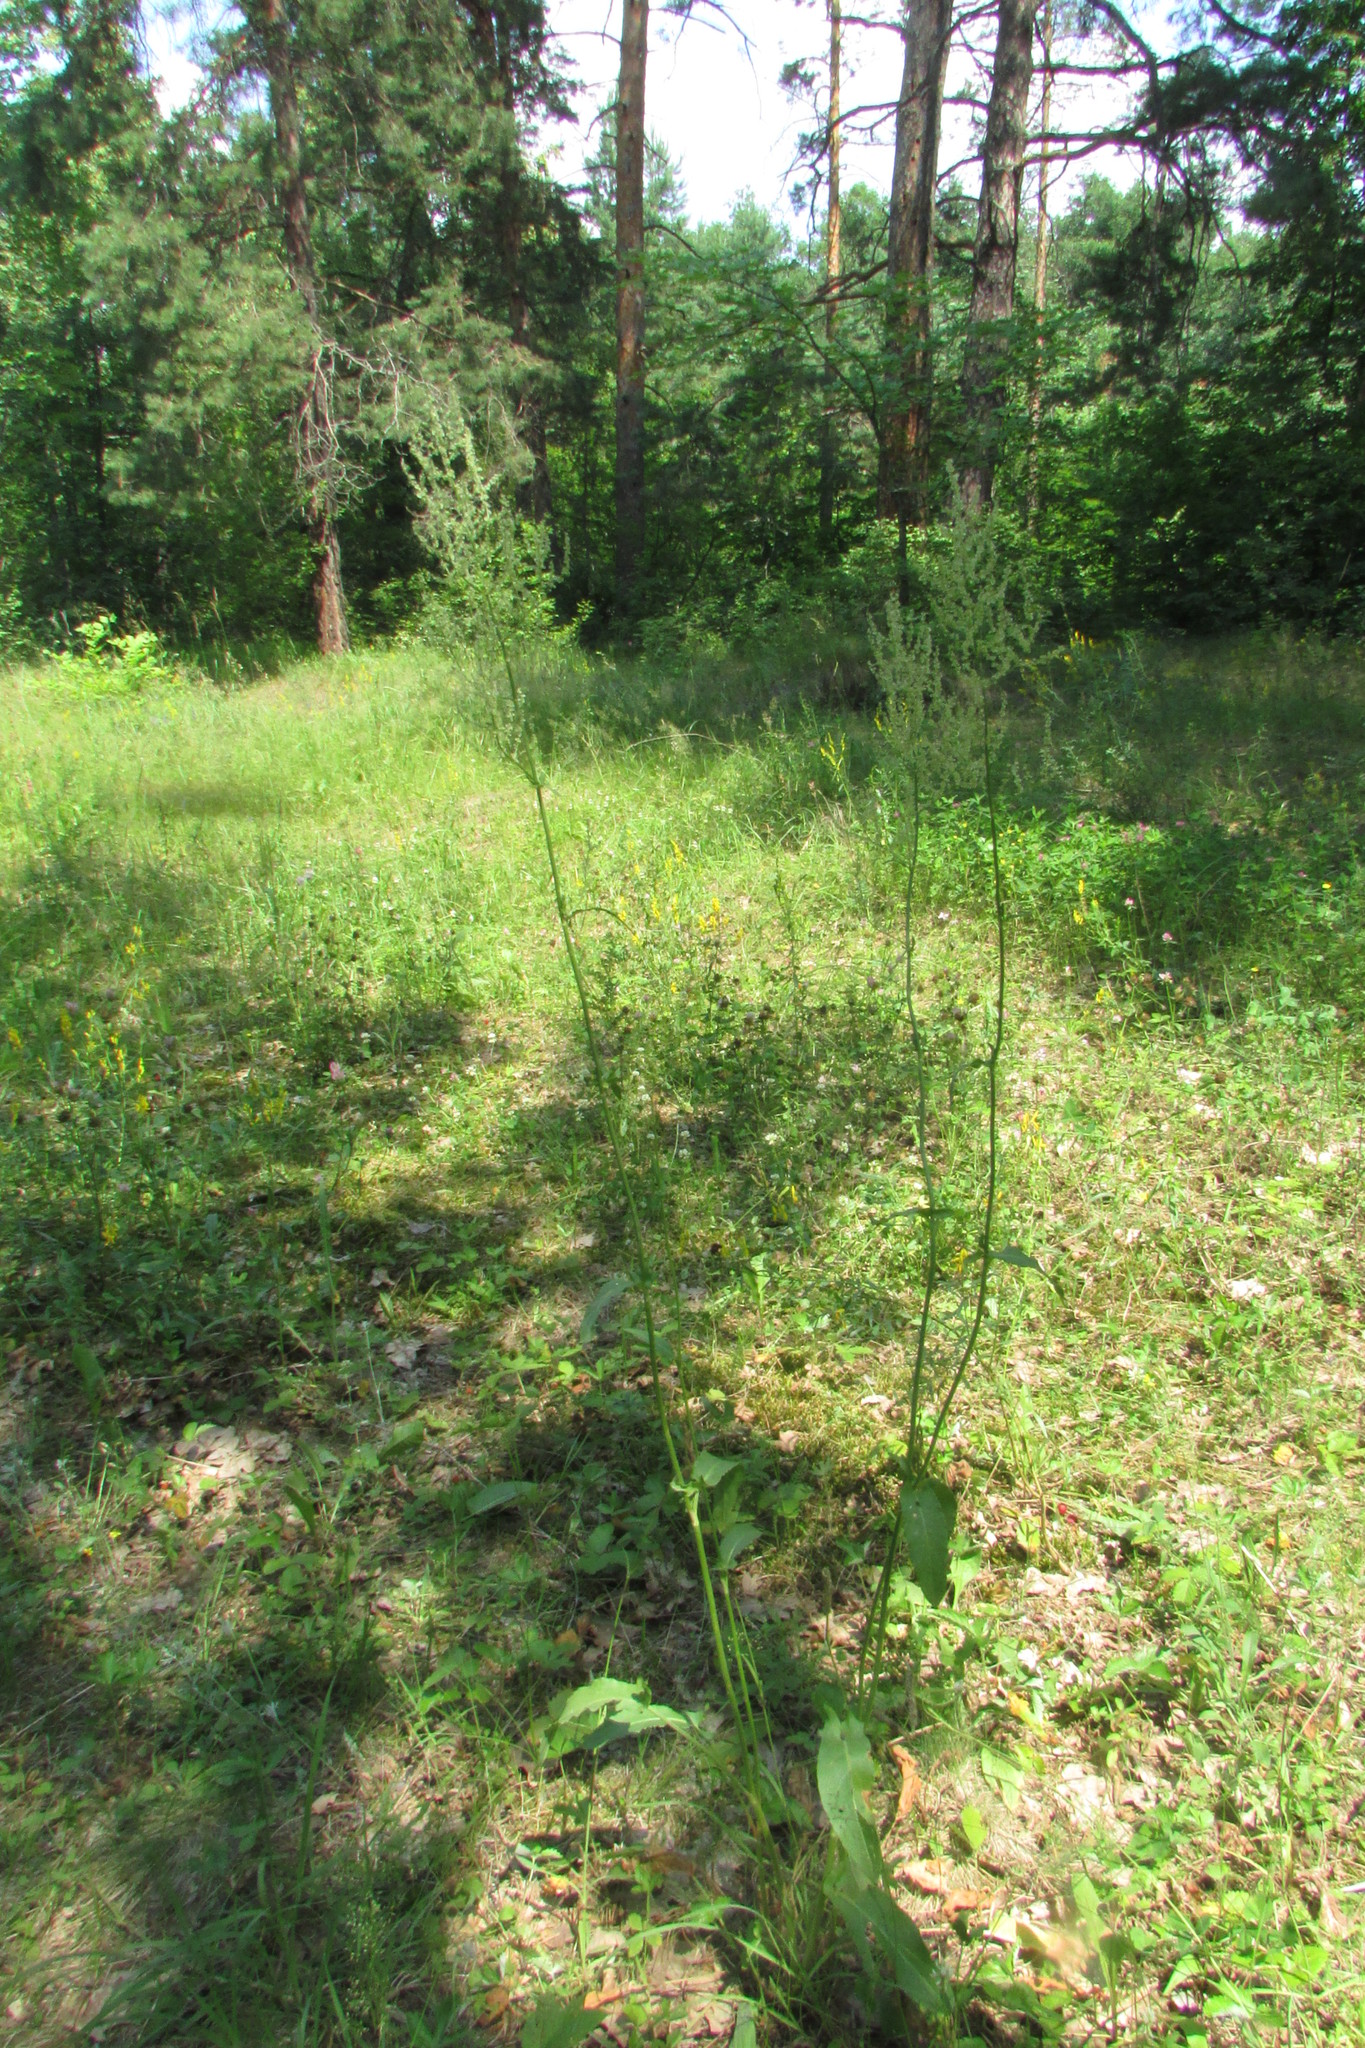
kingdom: Plantae
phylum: Tracheophyta
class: Magnoliopsida
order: Caryophyllales
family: Polygonaceae
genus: Rumex
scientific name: Rumex thyrsiflorus
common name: Garden sorrel
